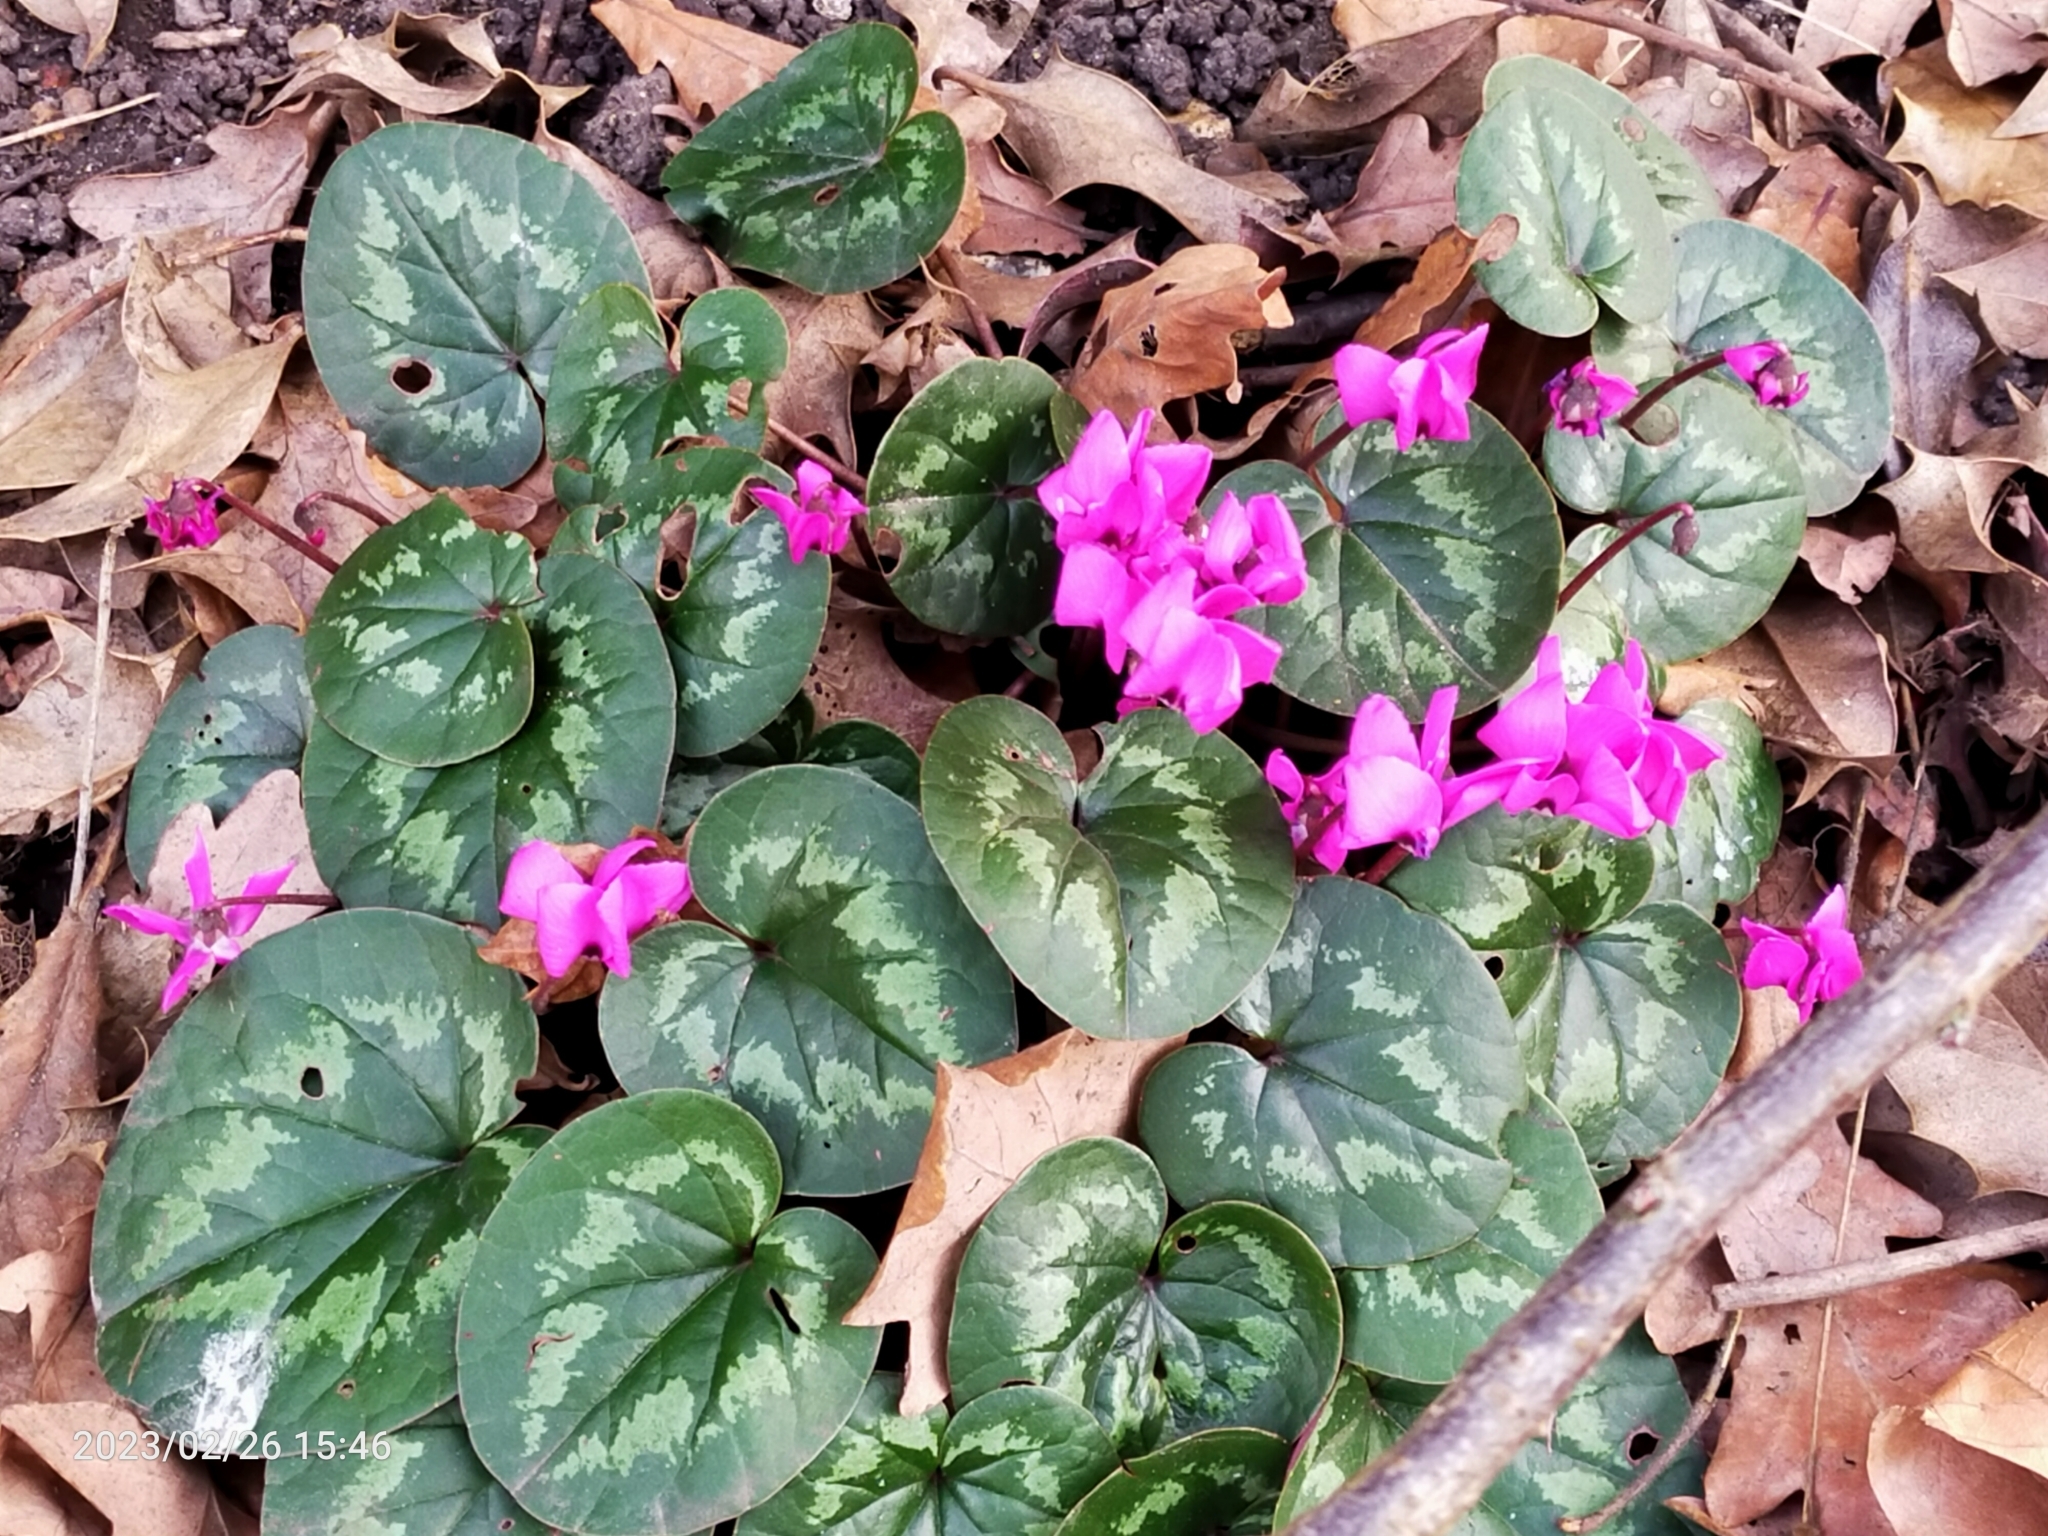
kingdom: Plantae
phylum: Tracheophyta
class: Magnoliopsida
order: Ericales
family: Primulaceae
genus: Cyclamen
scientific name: Cyclamen coum
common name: Eastern sowbread
